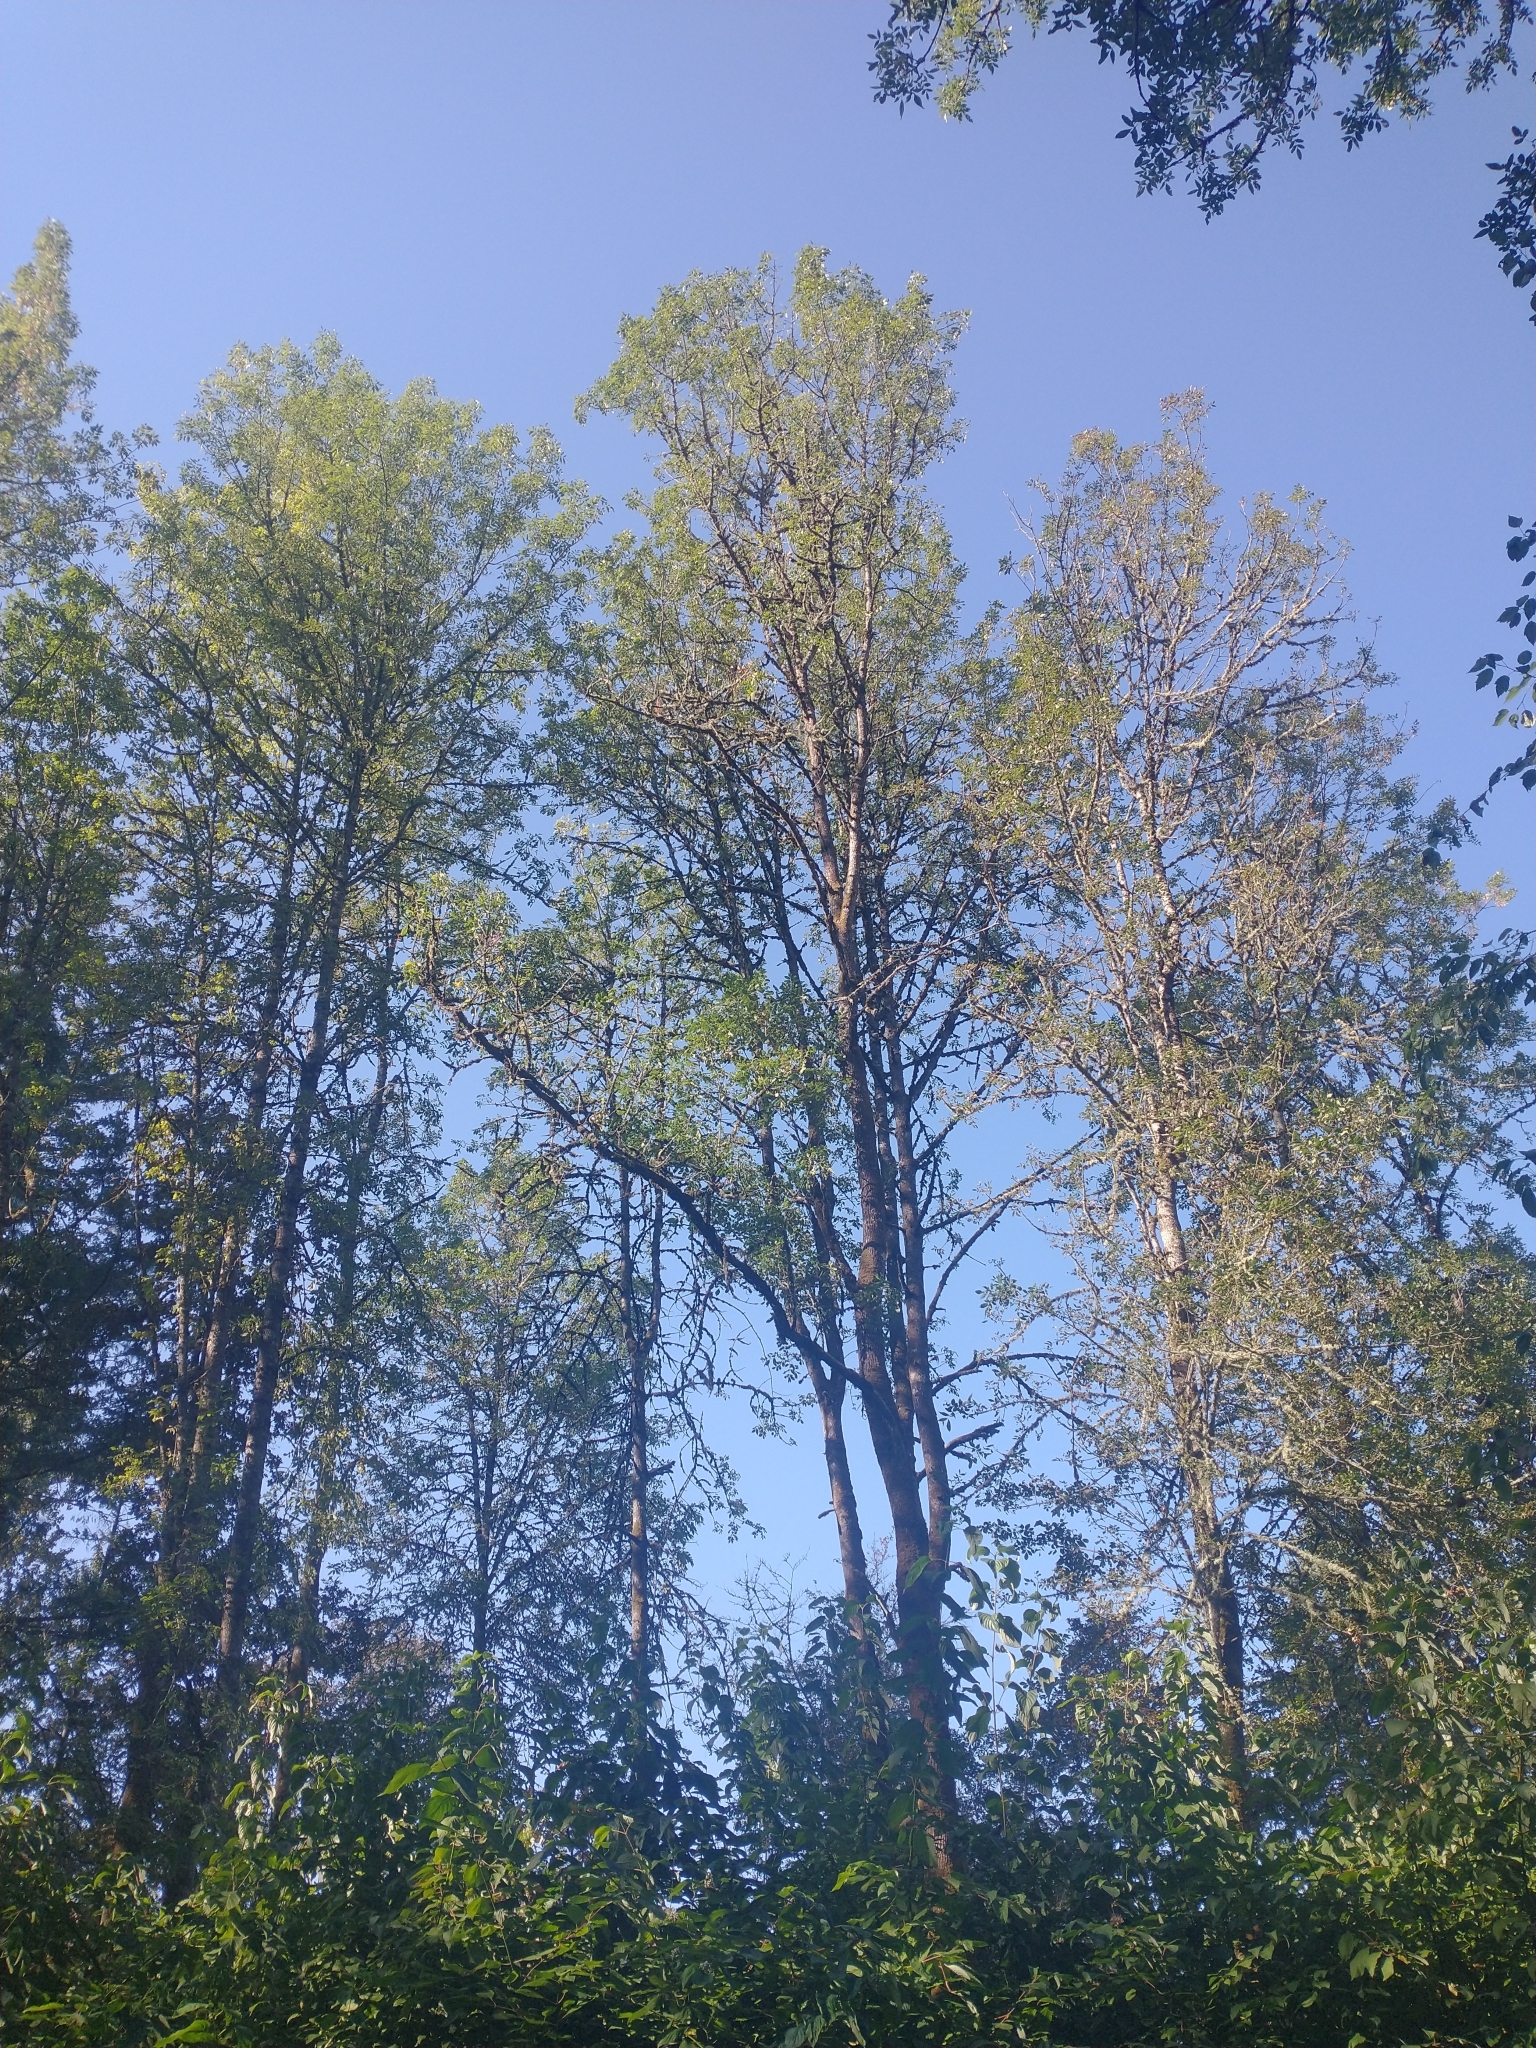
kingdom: Plantae
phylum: Tracheophyta
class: Magnoliopsida
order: Lamiales
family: Oleaceae
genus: Fraxinus
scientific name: Fraxinus latifolia
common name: Oregon ash
